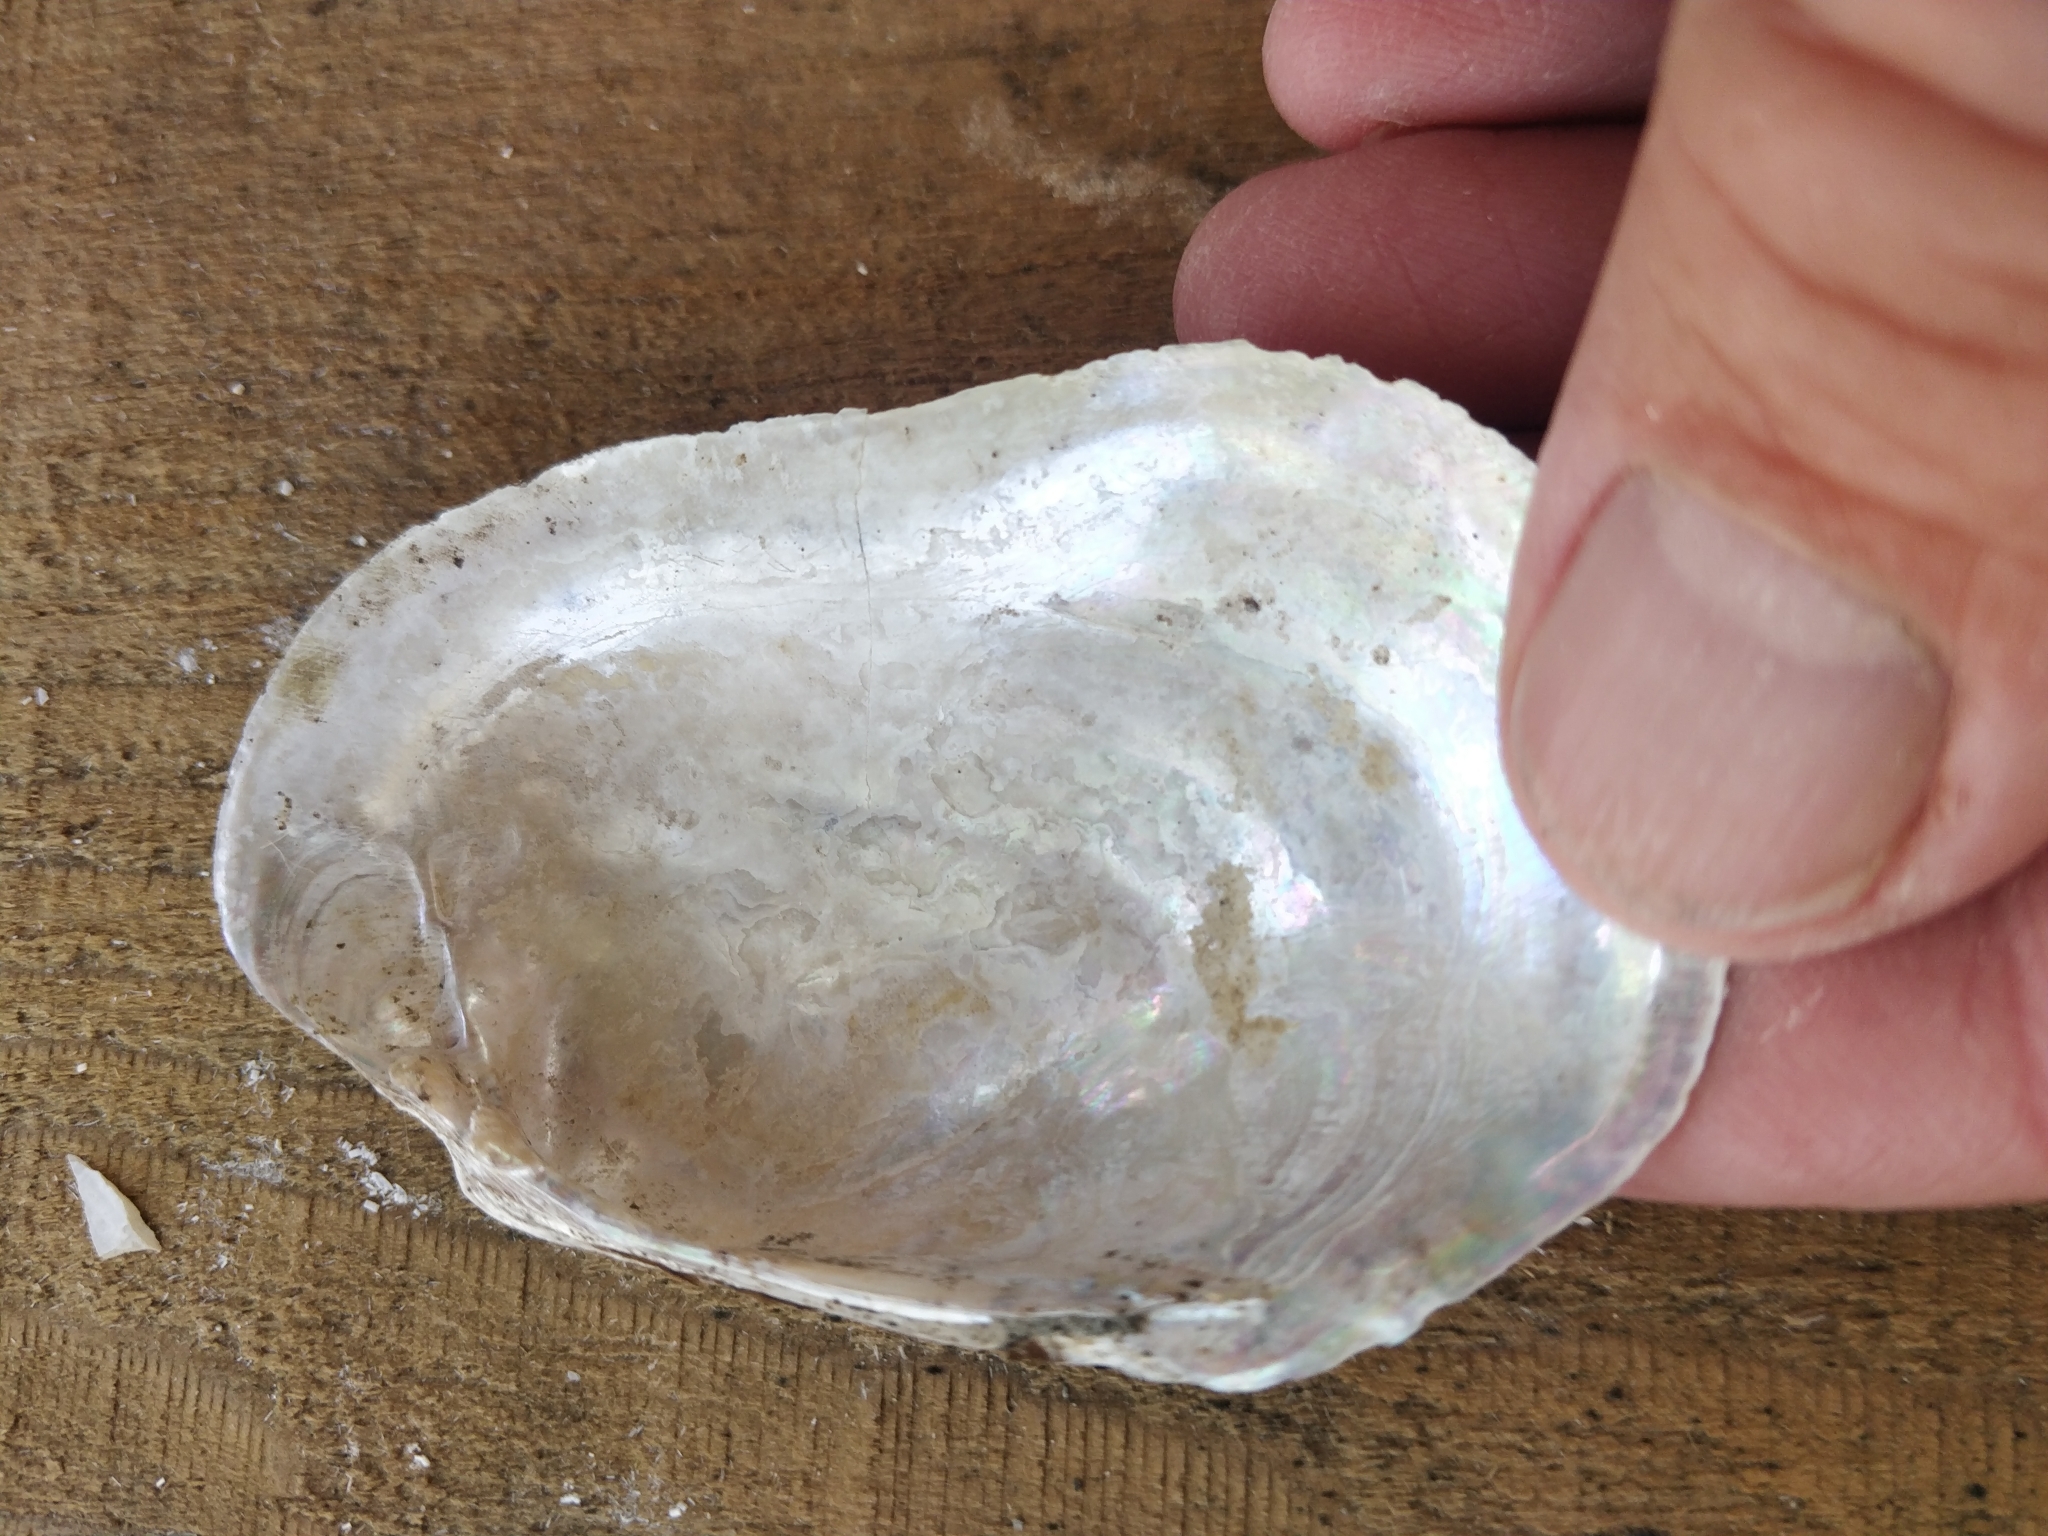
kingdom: Animalia
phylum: Mollusca
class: Bivalvia
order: Unionida
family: Unionidae
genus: Lampsilis
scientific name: Lampsilis siliquoidea
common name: Fatmucket
